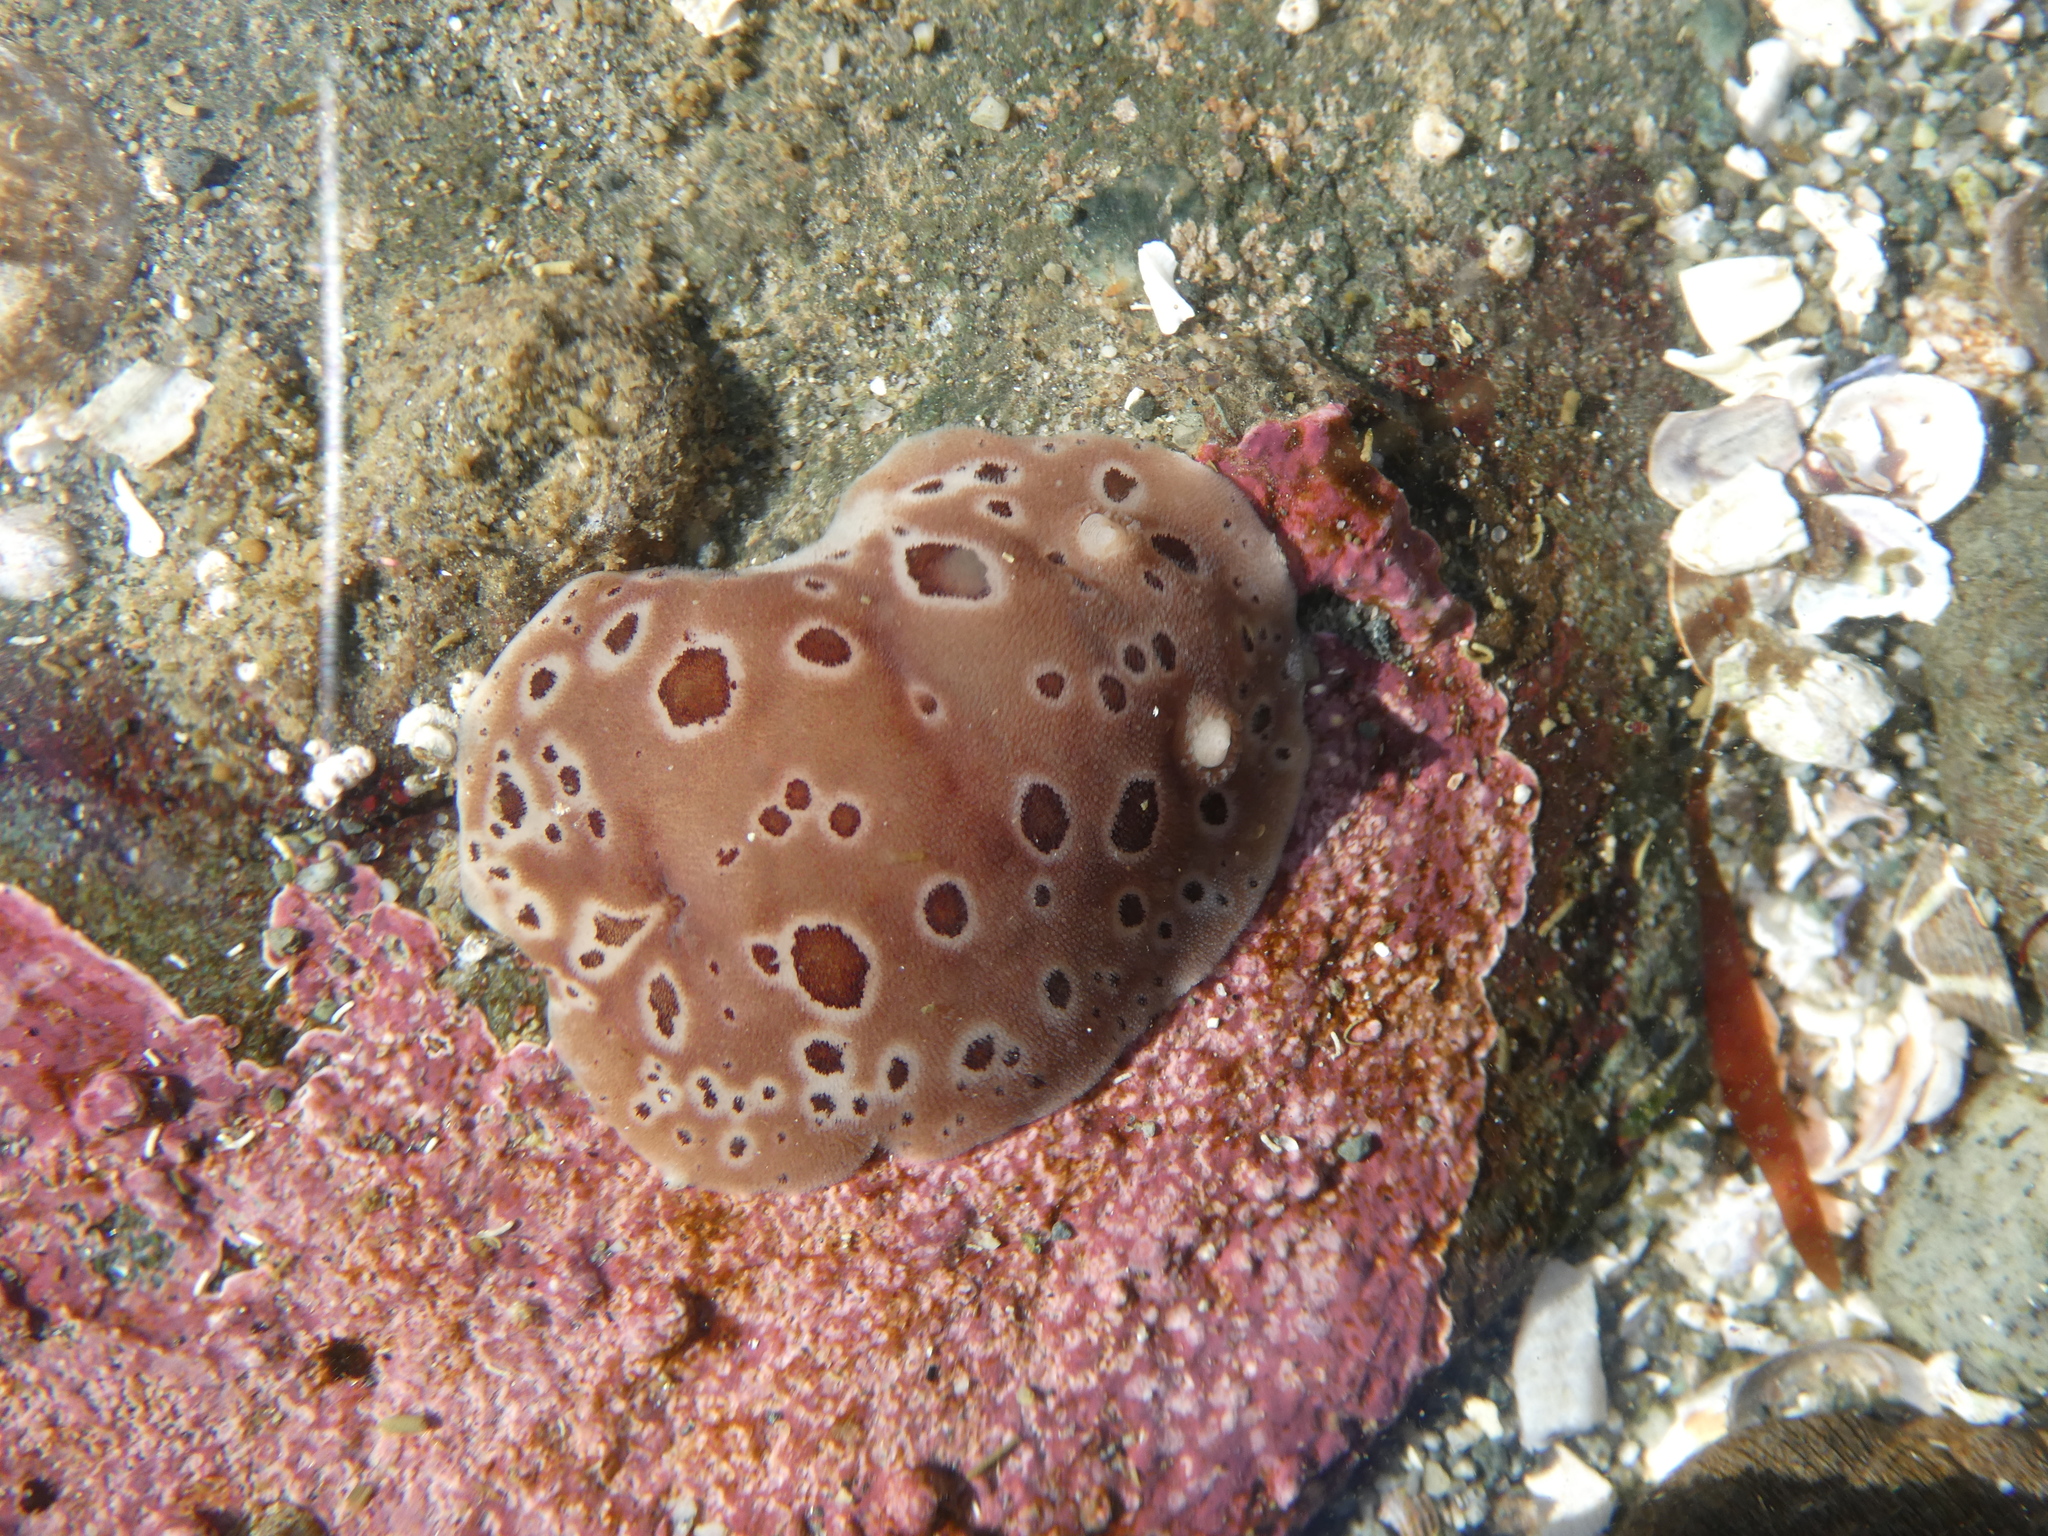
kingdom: Animalia
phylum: Mollusca
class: Gastropoda
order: Nudibranchia
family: Discodorididae
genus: Diaulula
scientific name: Diaulula odonoghuei
